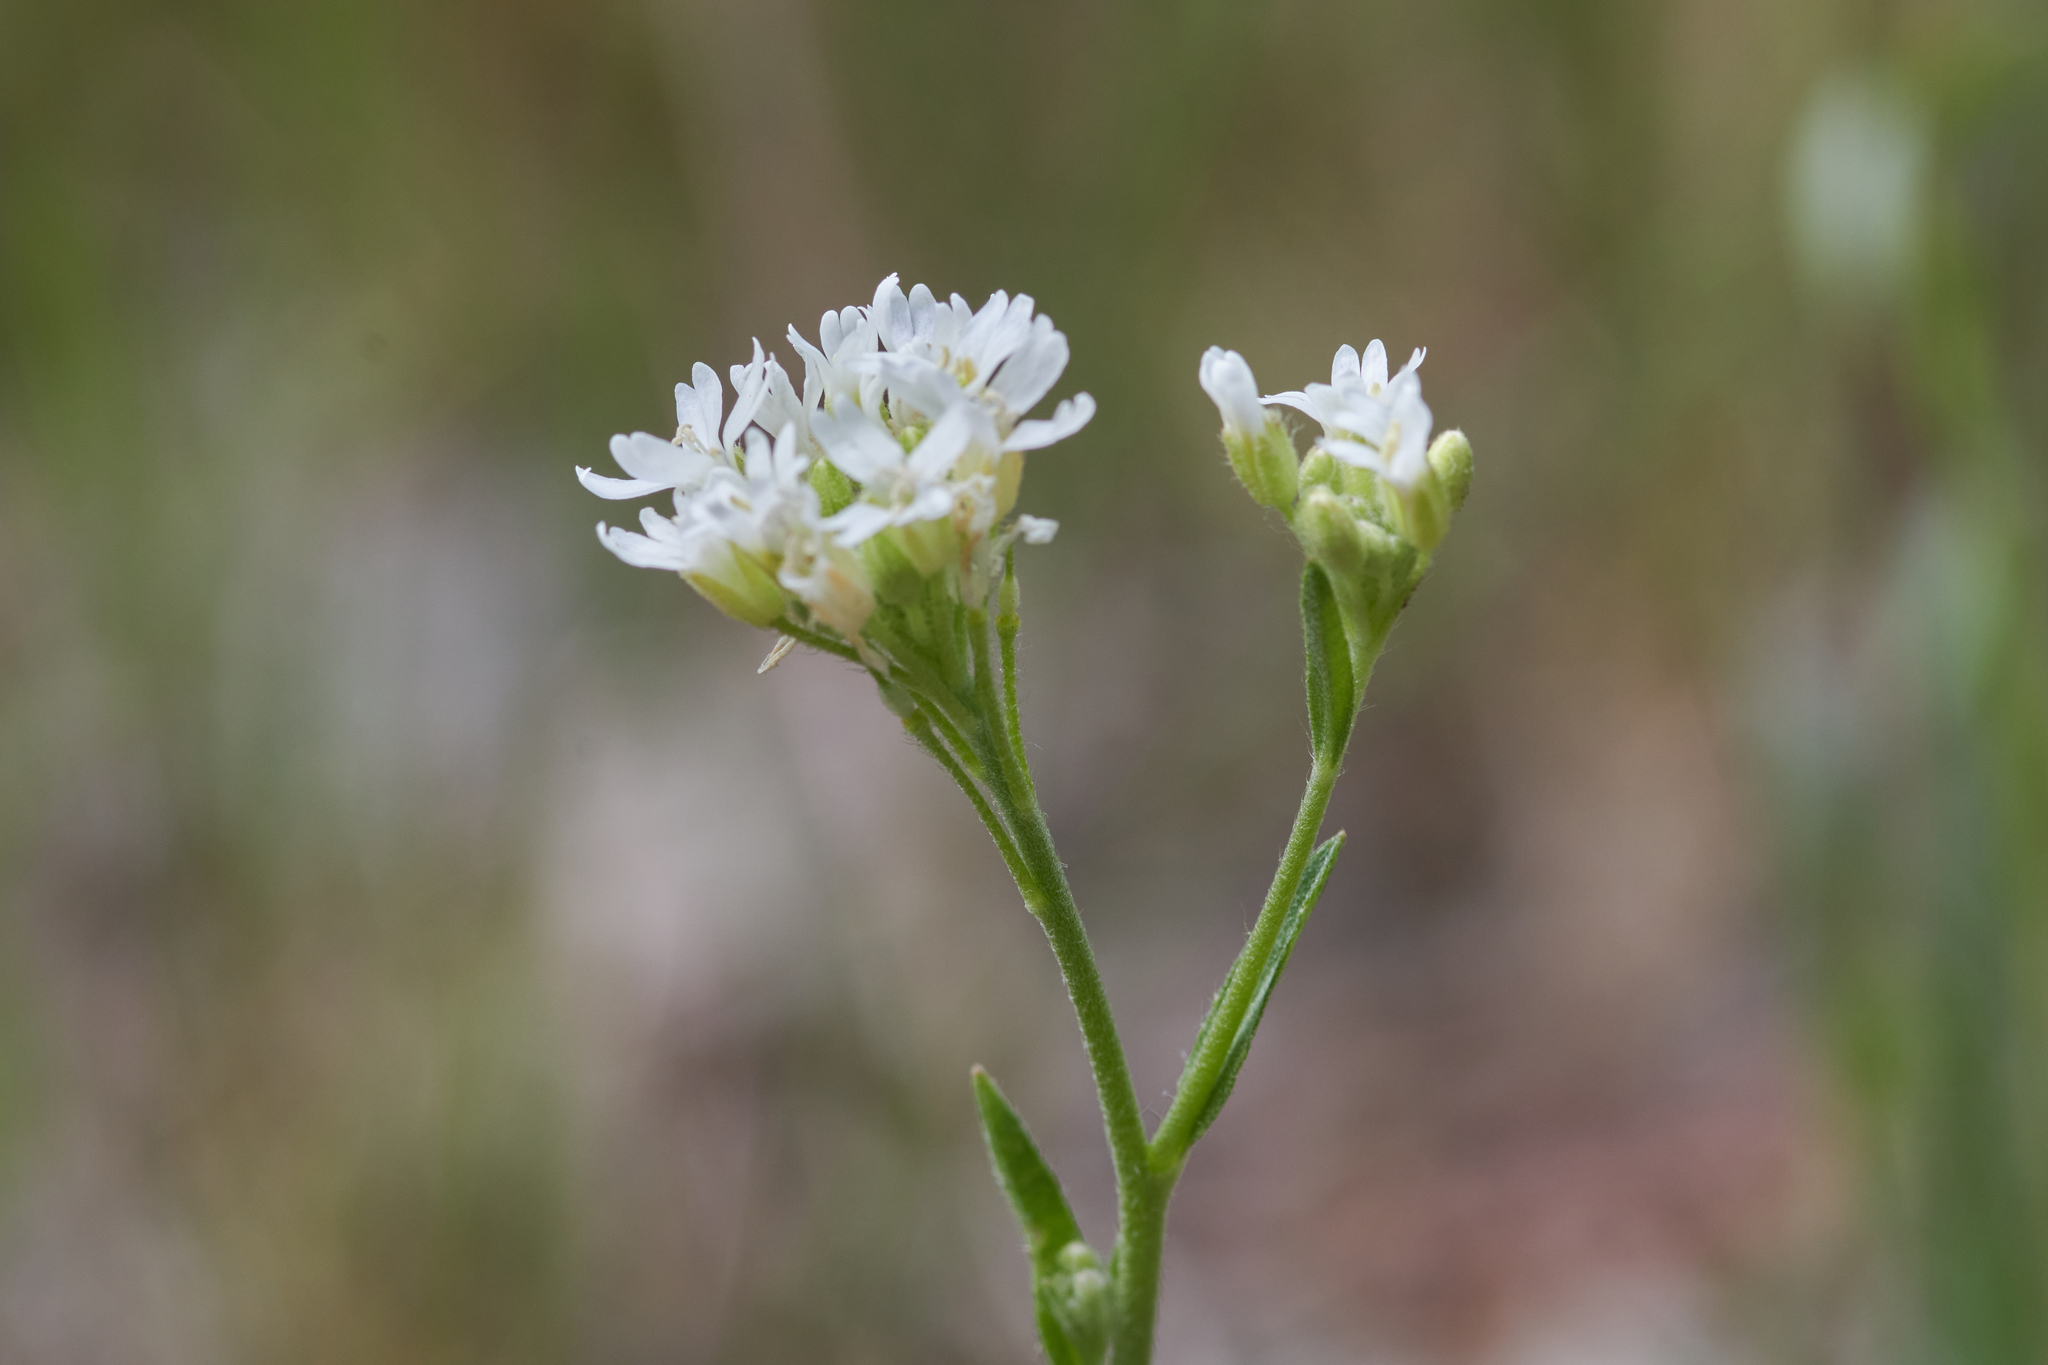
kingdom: Plantae
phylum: Tracheophyta
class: Magnoliopsida
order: Brassicales
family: Brassicaceae
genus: Berteroa
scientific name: Berteroa incana
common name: Hoary alison
